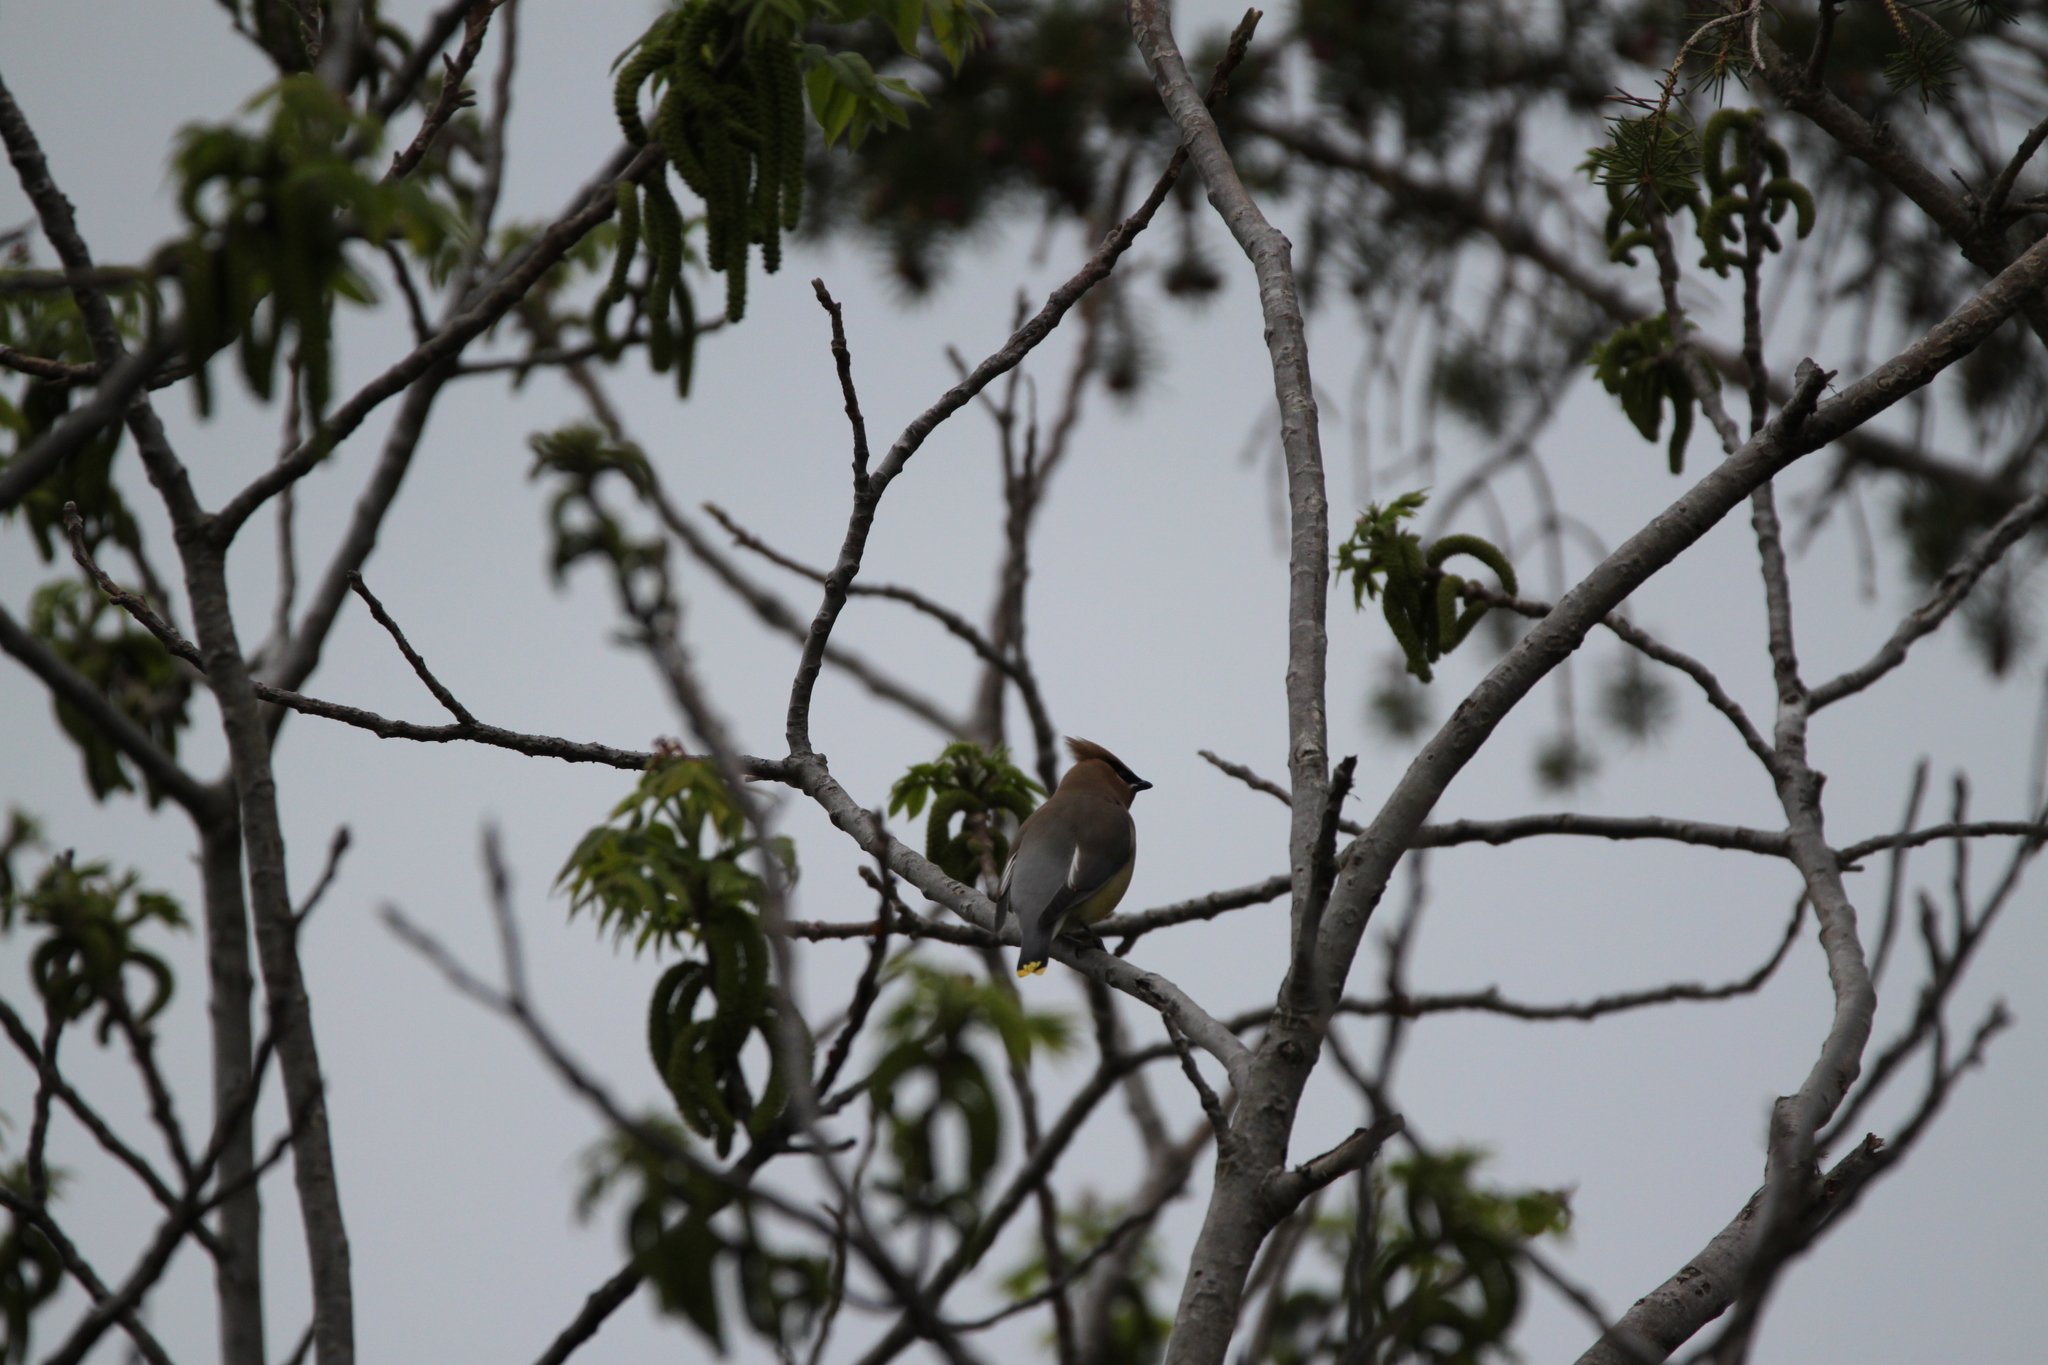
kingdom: Animalia
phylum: Chordata
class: Aves
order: Passeriformes
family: Bombycillidae
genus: Bombycilla
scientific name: Bombycilla cedrorum
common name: Cedar waxwing
